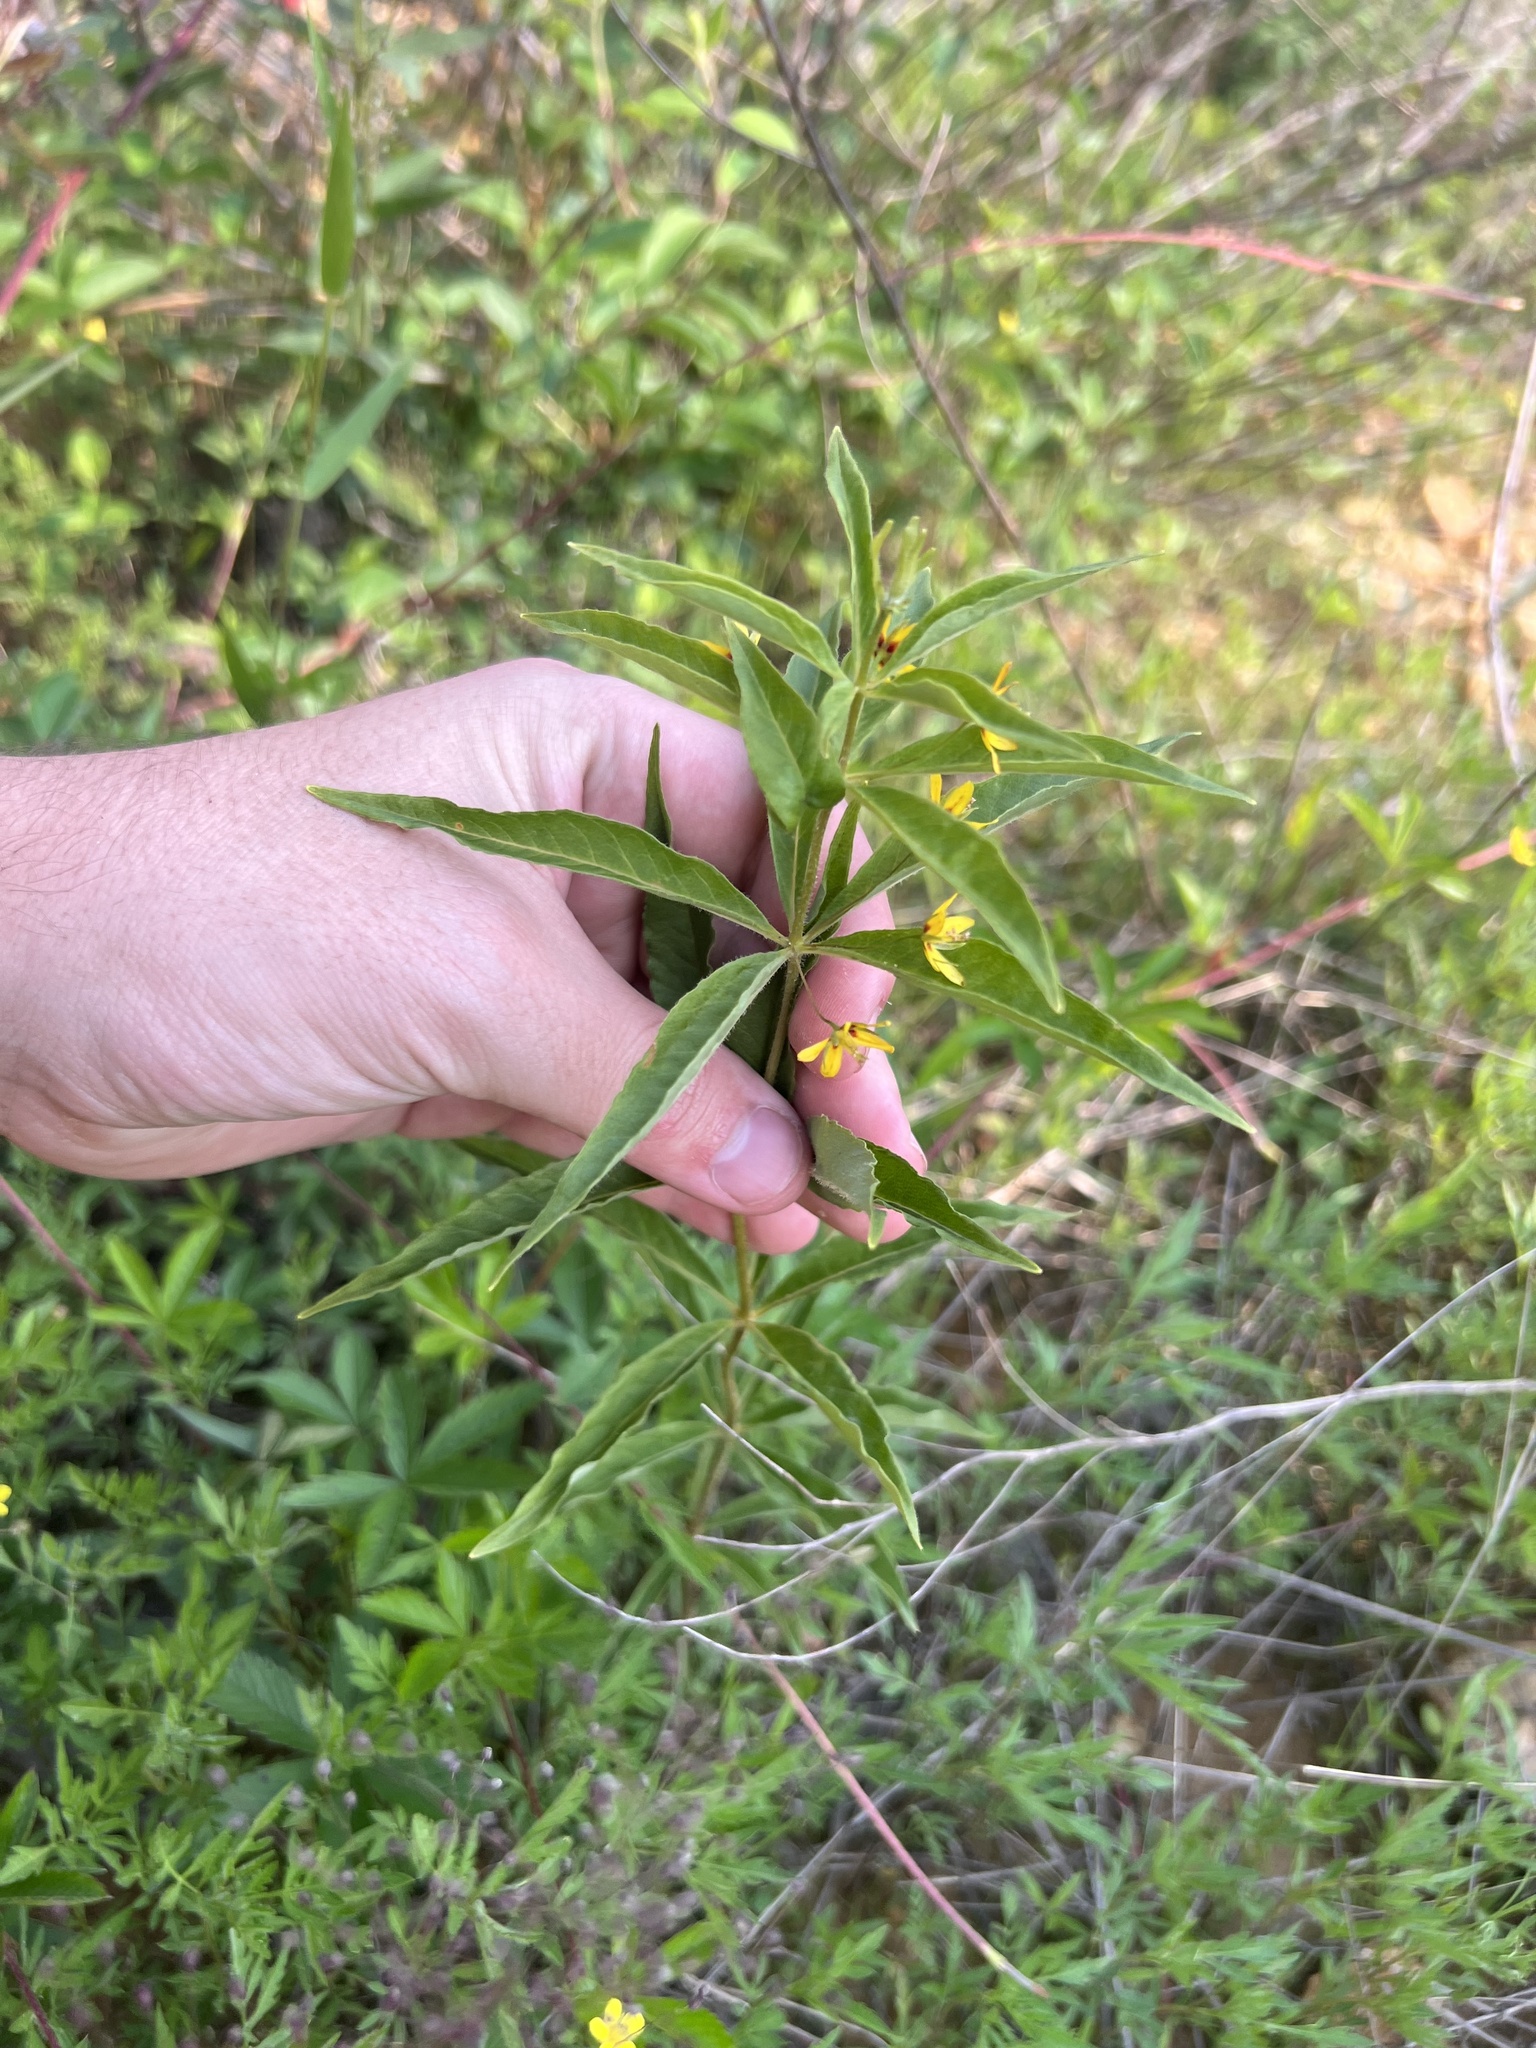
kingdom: Plantae
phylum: Tracheophyta
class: Magnoliopsida
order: Ericales
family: Primulaceae
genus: Lysimachia
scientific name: Lysimachia quadrifolia
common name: Whorled loosestrife
